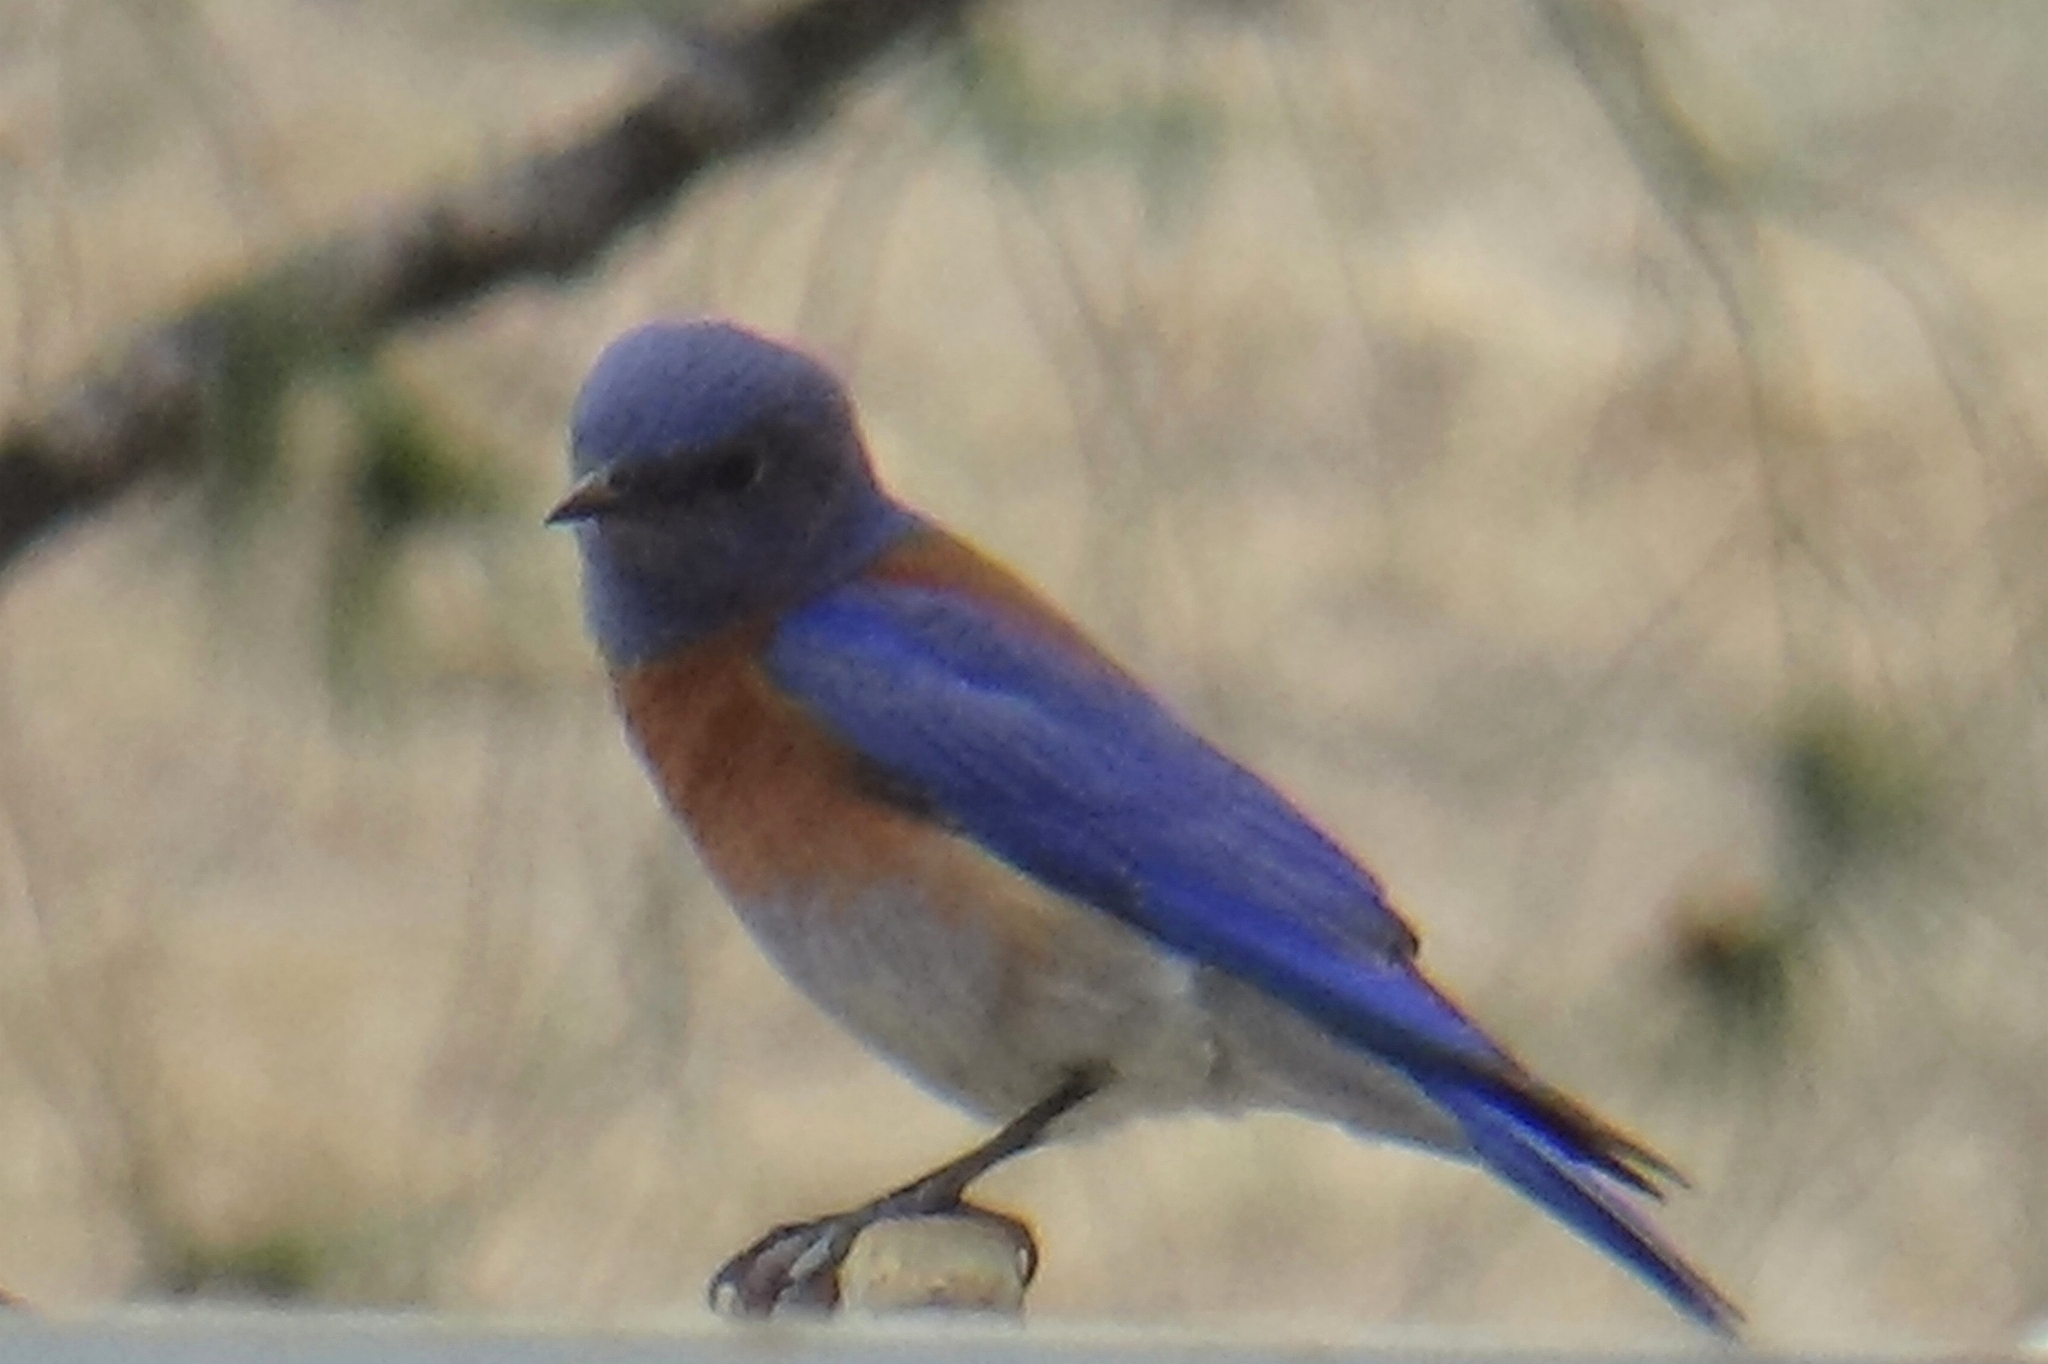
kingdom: Animalia
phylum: Chordata
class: Aves
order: Passeriformes
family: Turdidae
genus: Sialia
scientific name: Sialia mexicana
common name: Western bluebird
